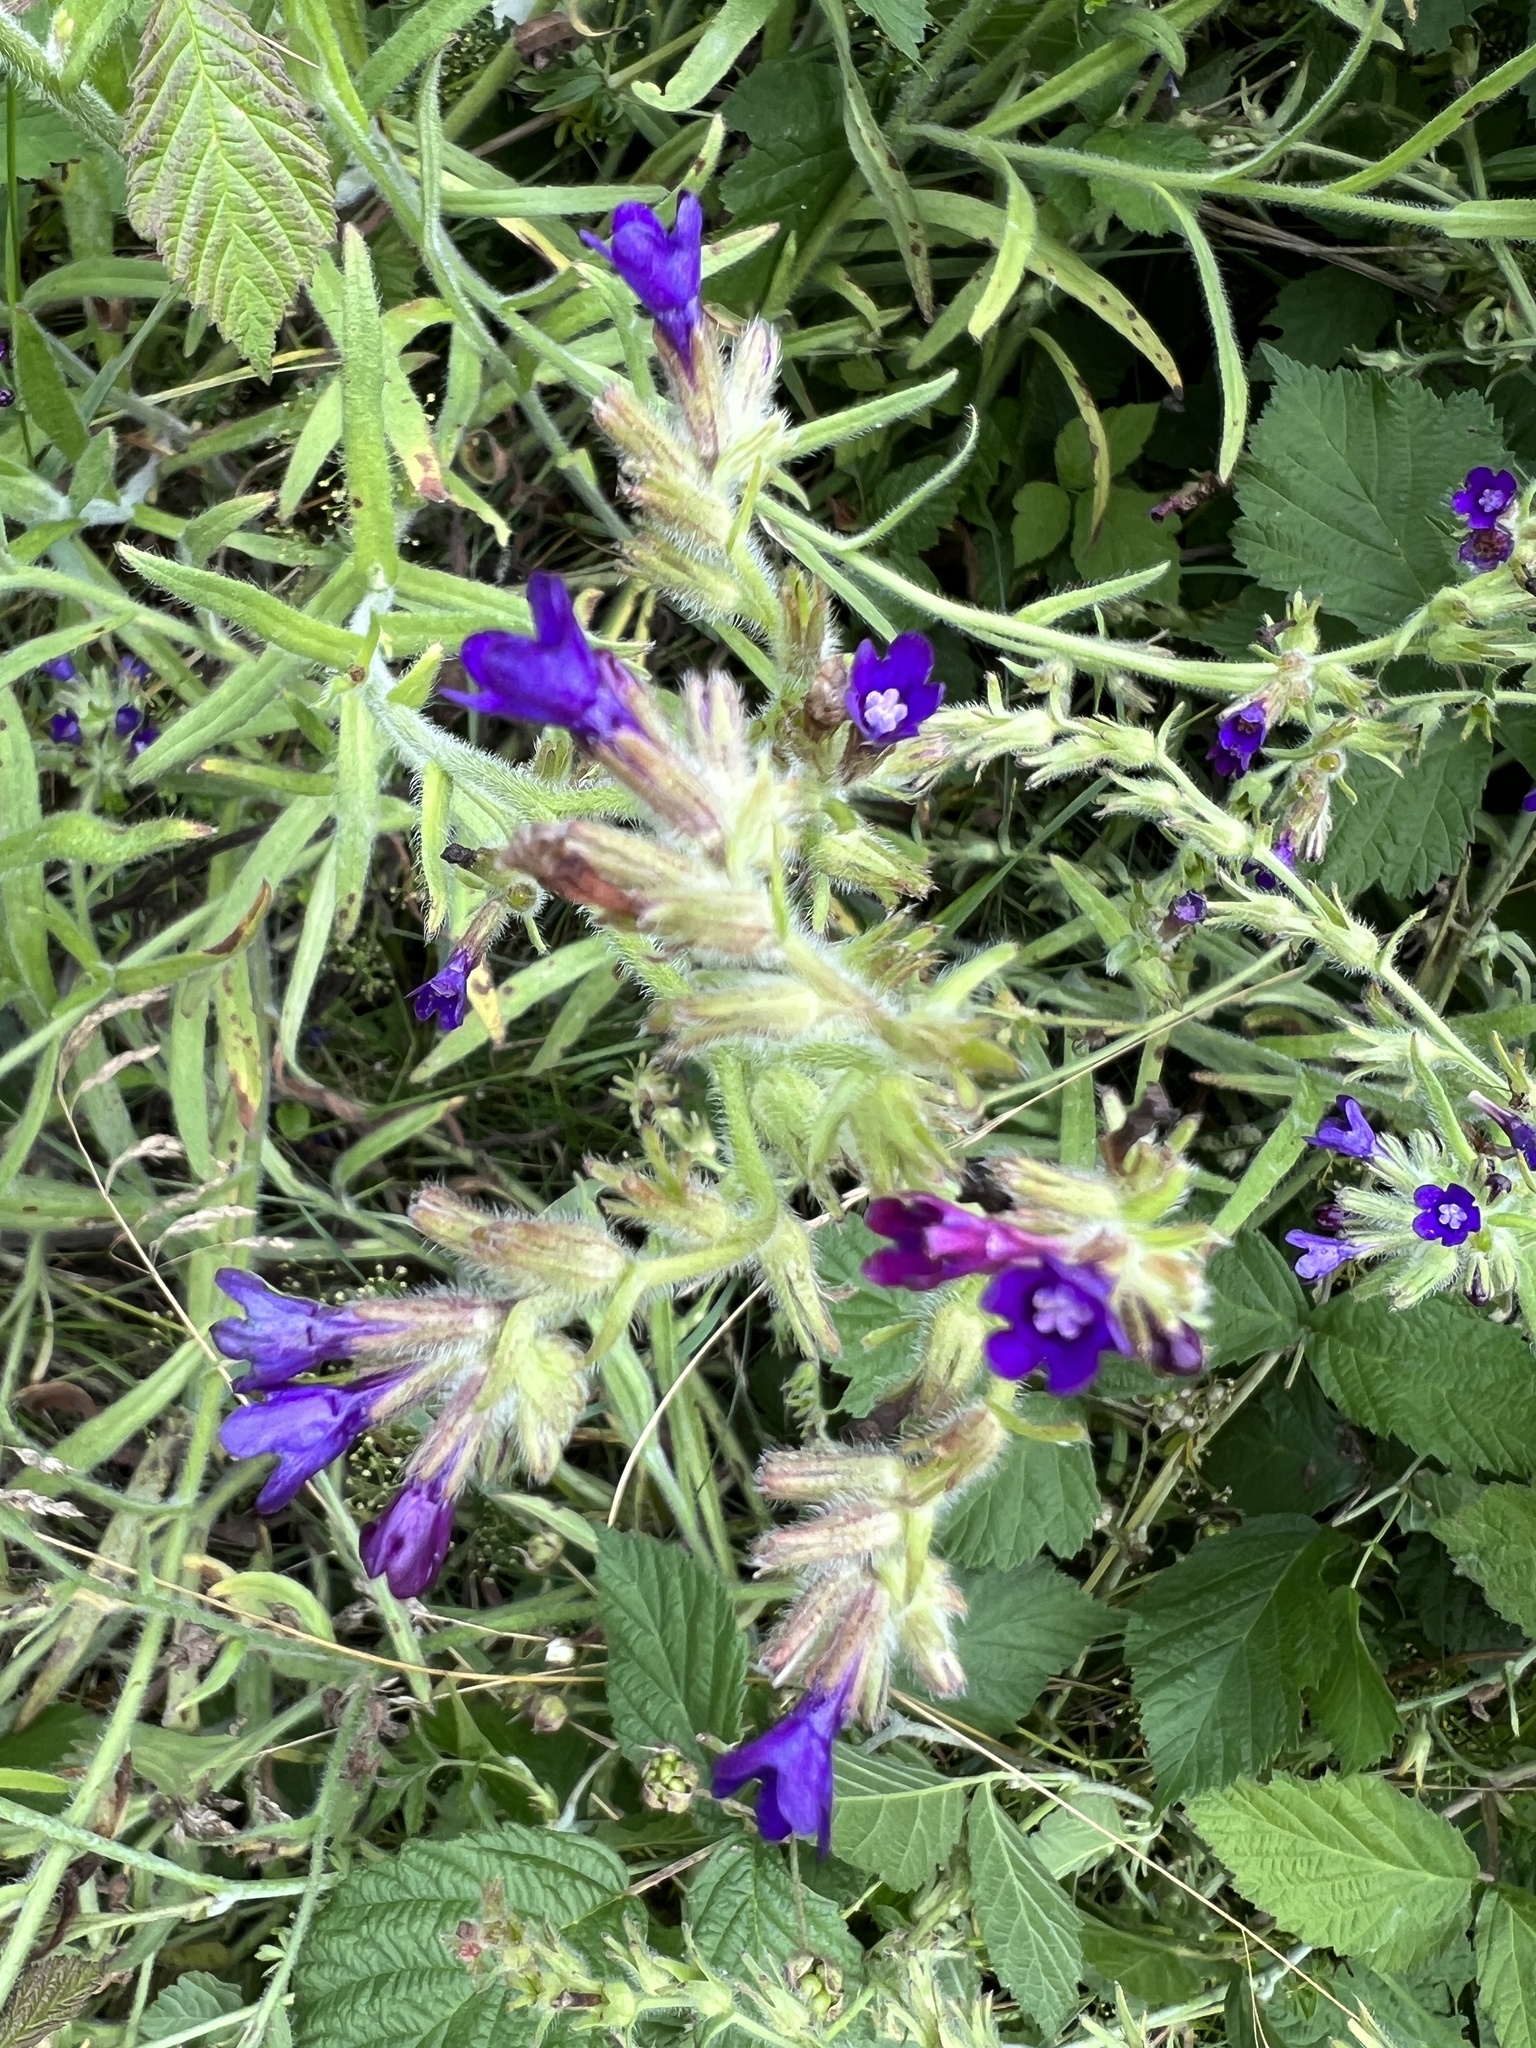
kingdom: Plantae
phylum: Tracheophyta
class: Magnoliopsida
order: Boraginales
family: Boraginaceae
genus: Anchusa
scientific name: Anchusa officinalis
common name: Alkanet
